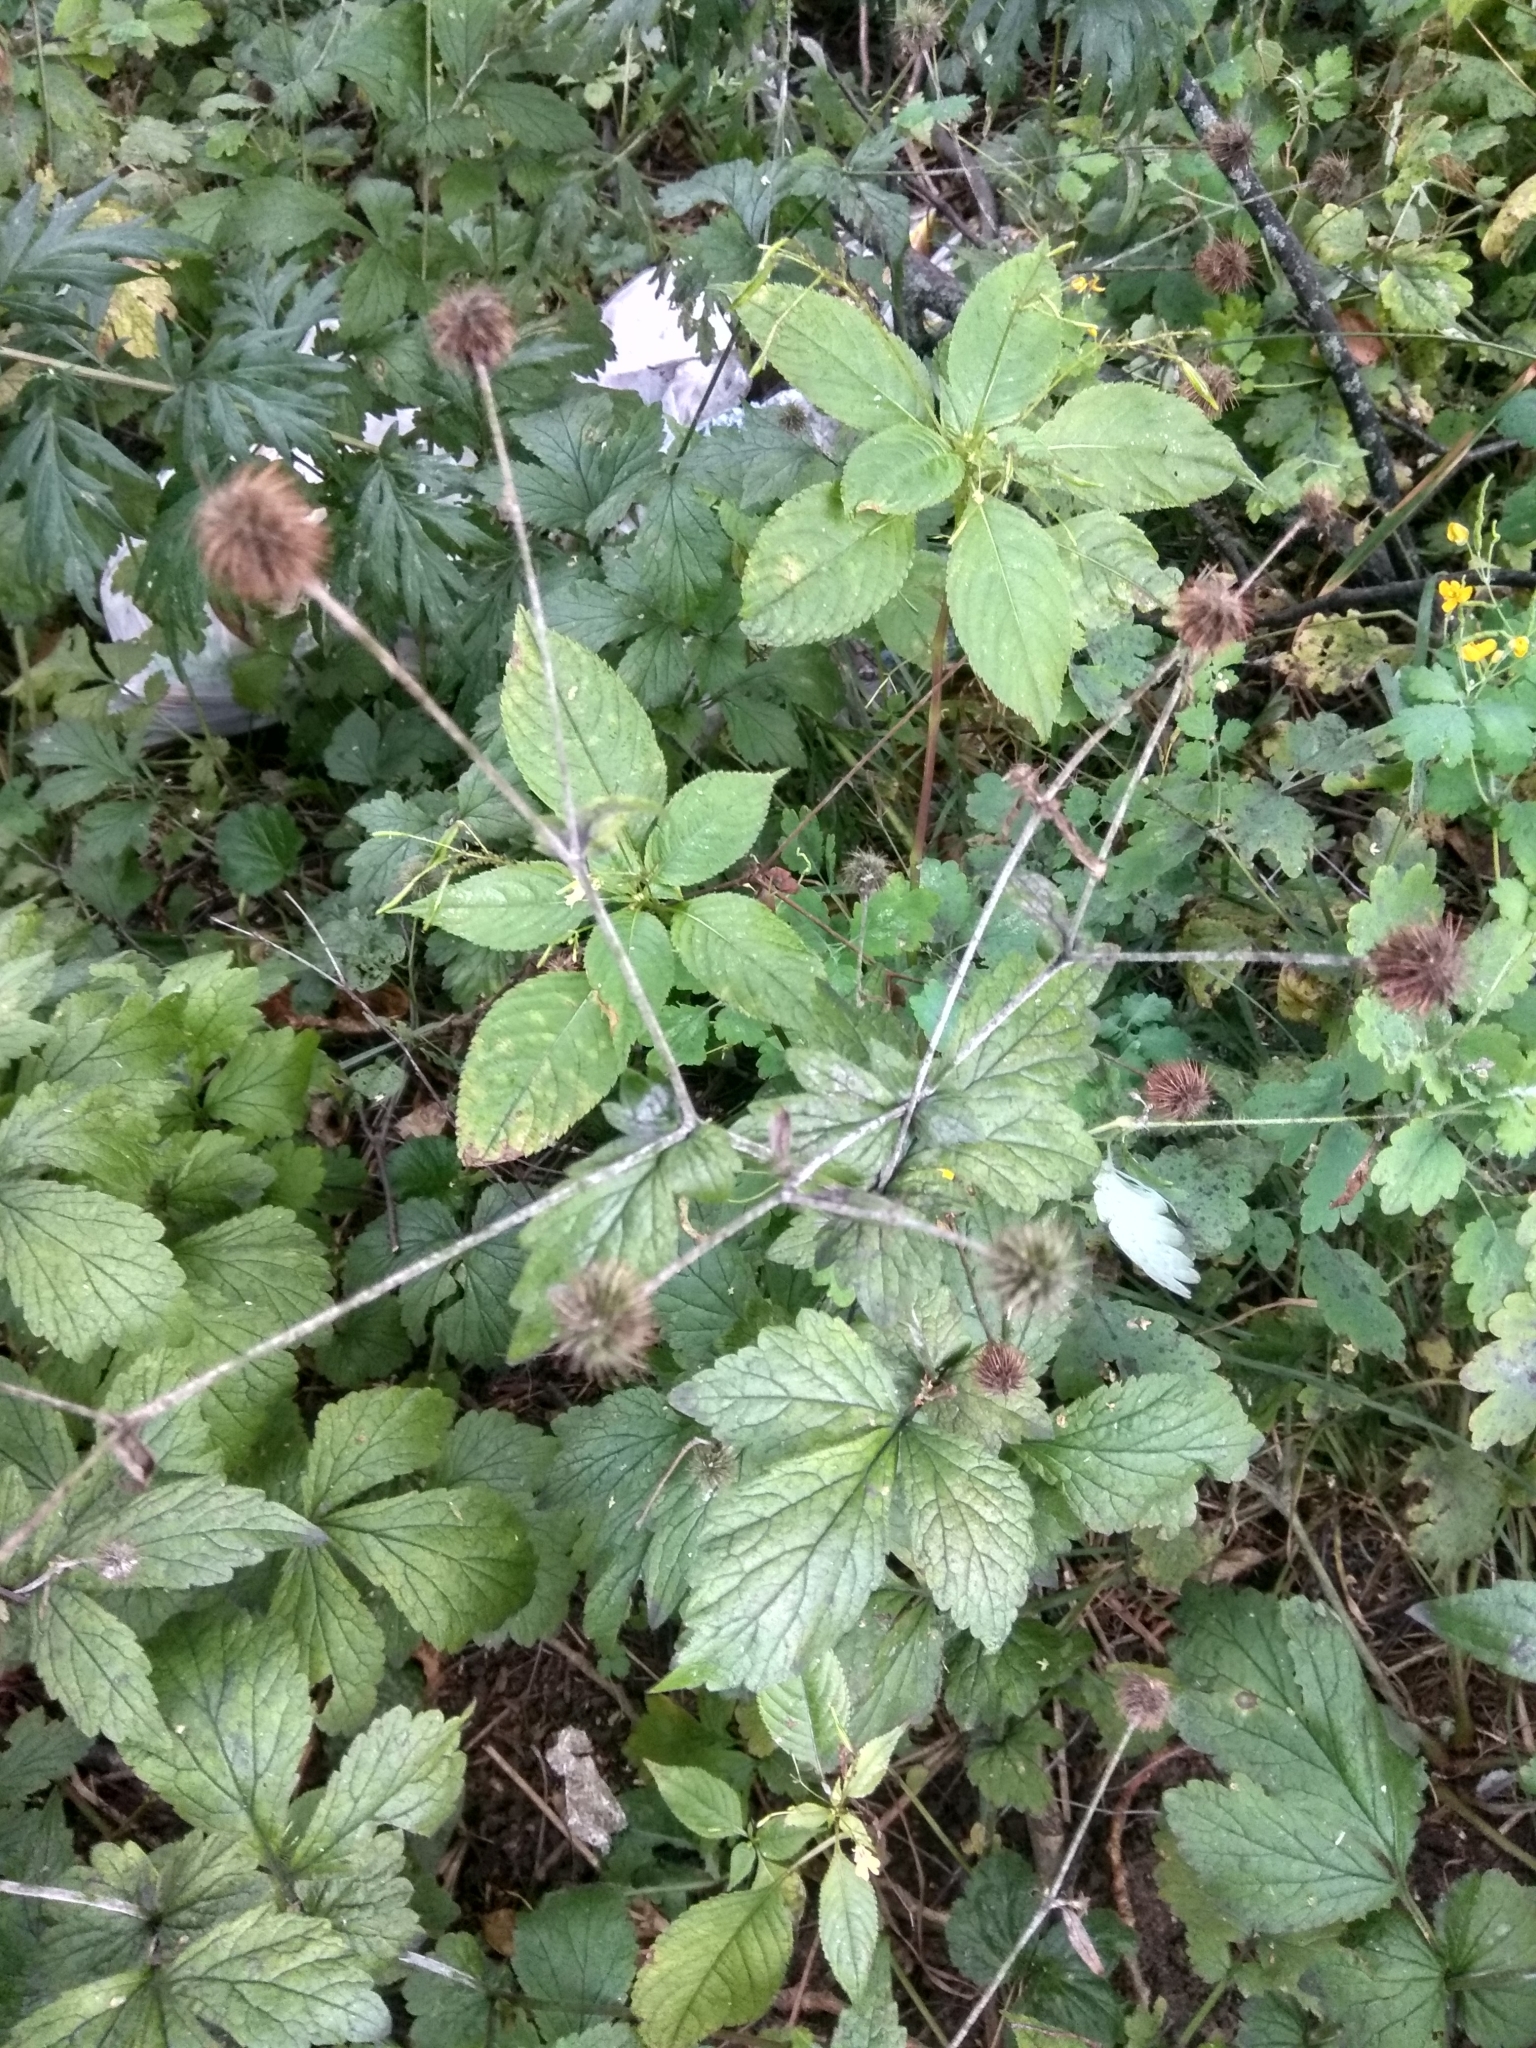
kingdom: Plantae
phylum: Tracheophyta
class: Magnoliopsida
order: Rosales
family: Rosaceae
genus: Geum
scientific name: Geum urbanum
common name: Wood avens
